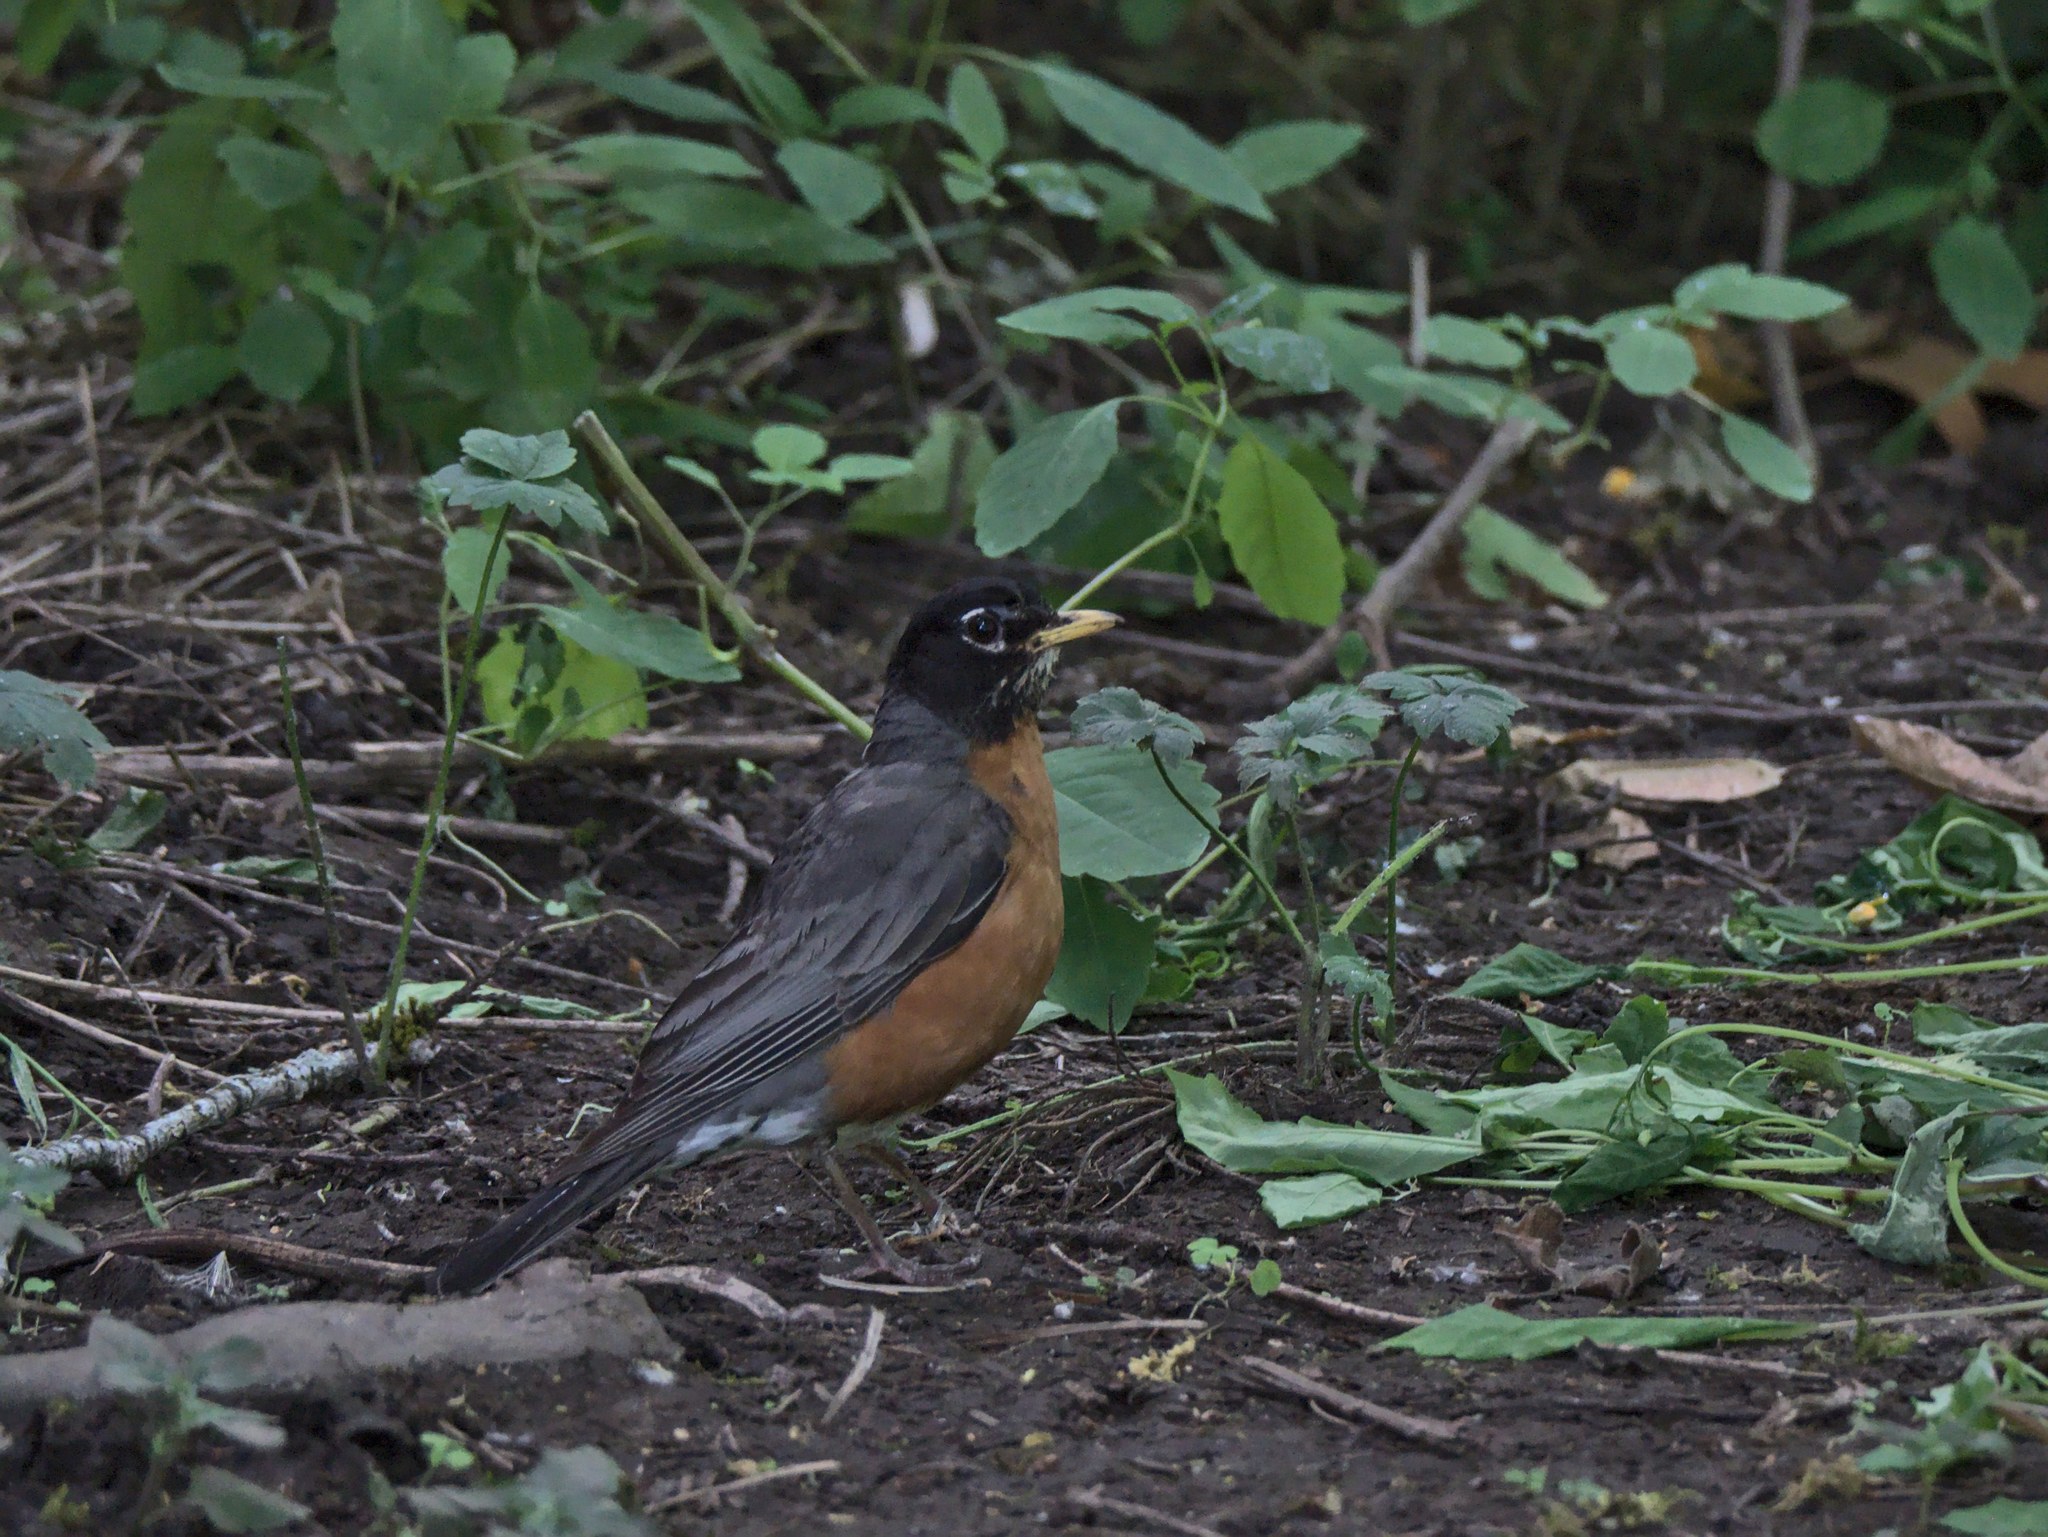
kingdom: Animalia
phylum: Chordata
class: Aves
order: Passeriformes
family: Turdidae
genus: Turdus
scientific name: Turdus migratorius
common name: American robin
